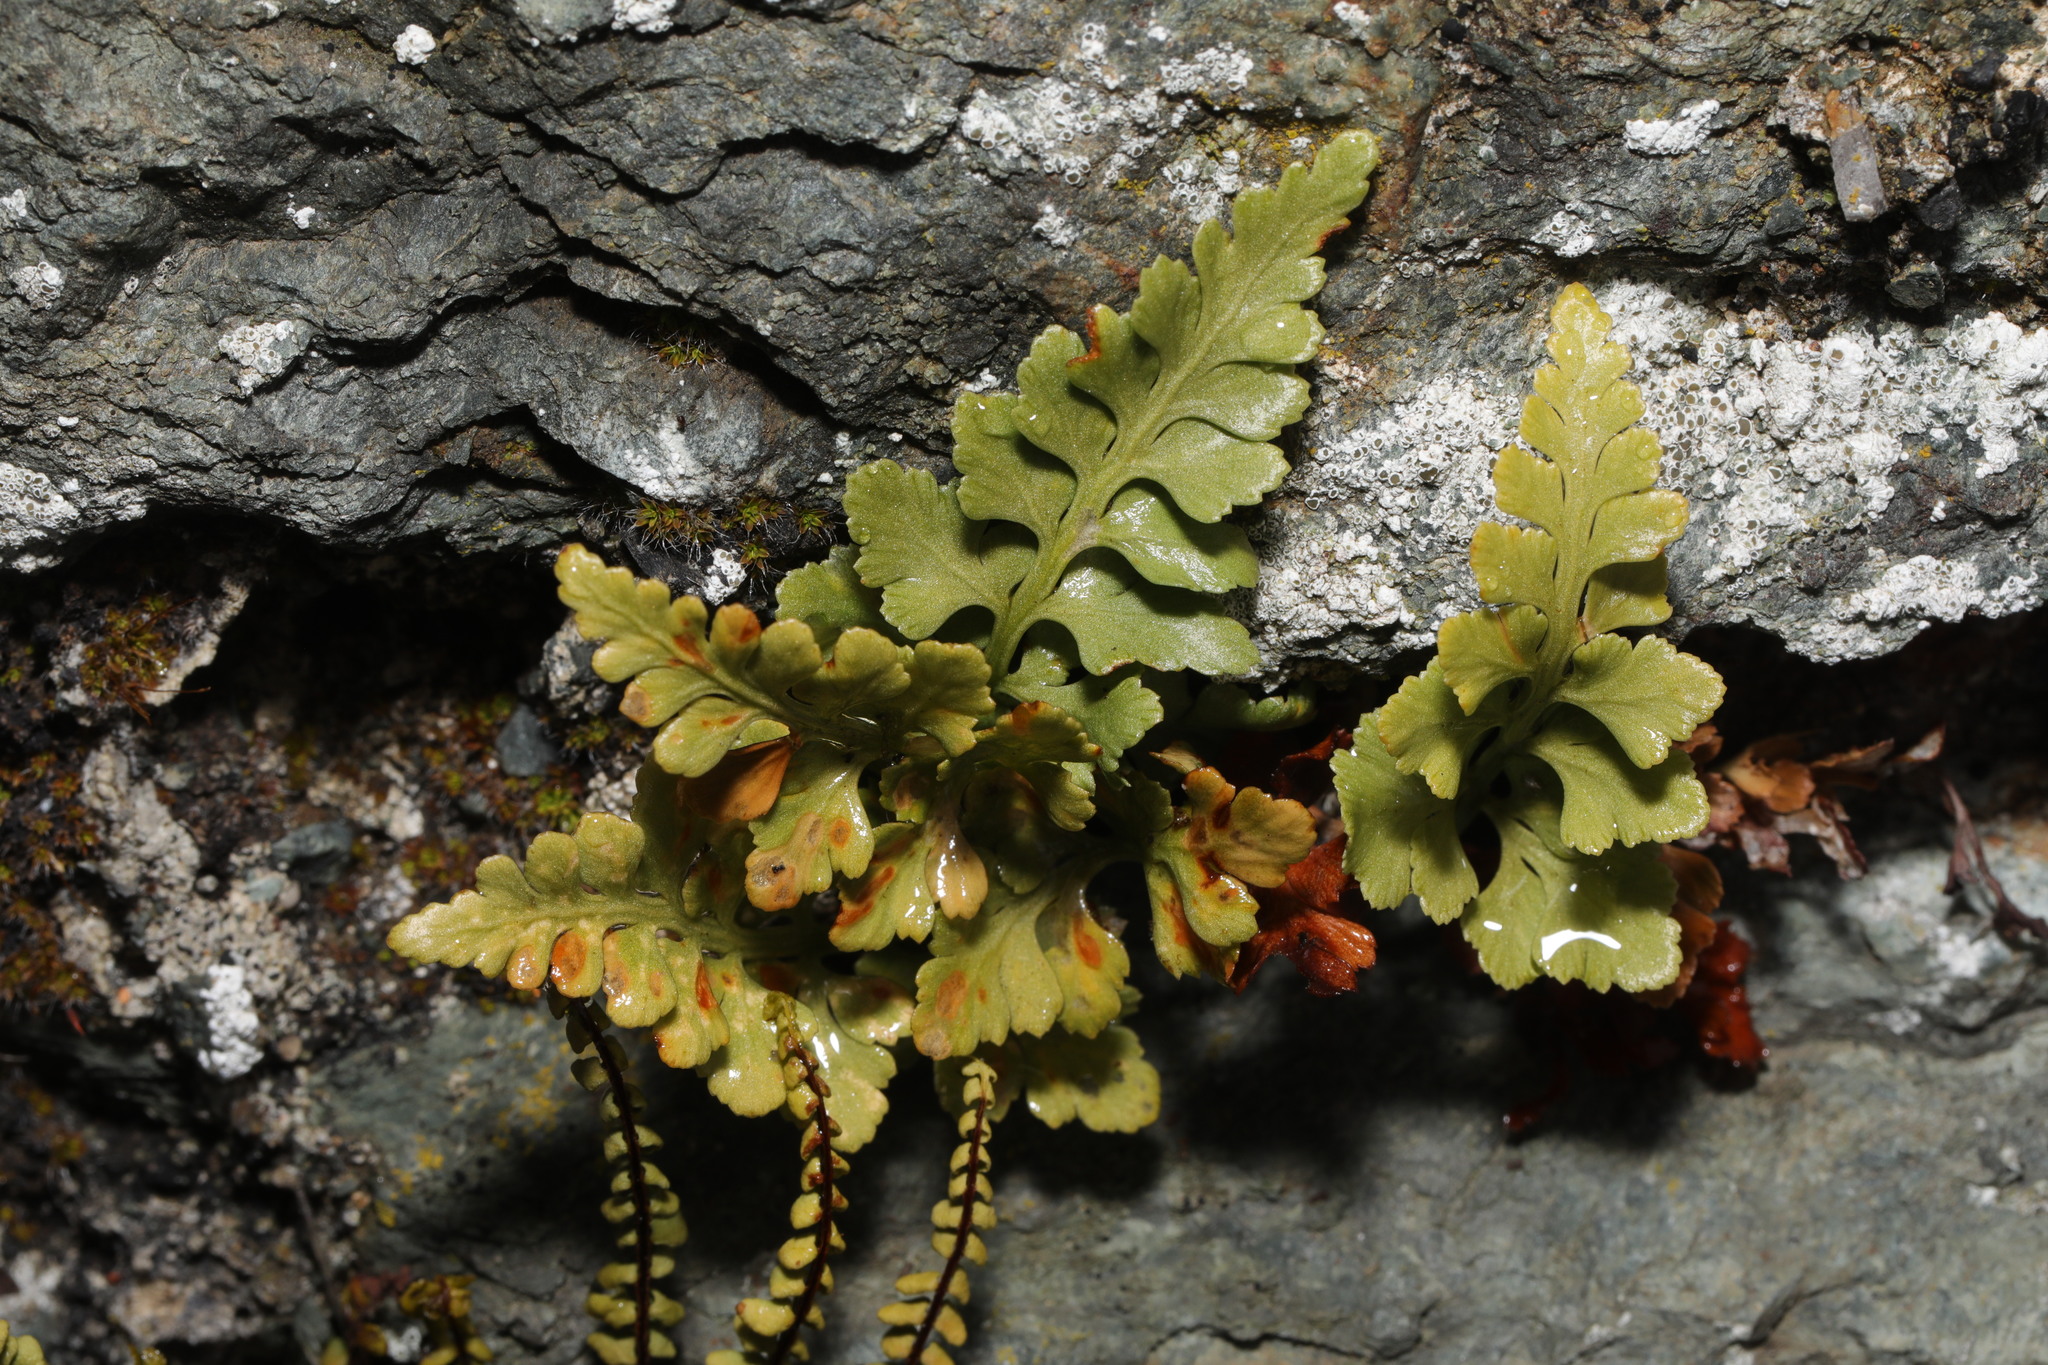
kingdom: Plantae
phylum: Tracheophyta
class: Polypodiopsida
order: Polypodiales
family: Aspleniaceae
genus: Asplenium
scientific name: Asplenium adiantum-nigrum
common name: Black spleenwort
